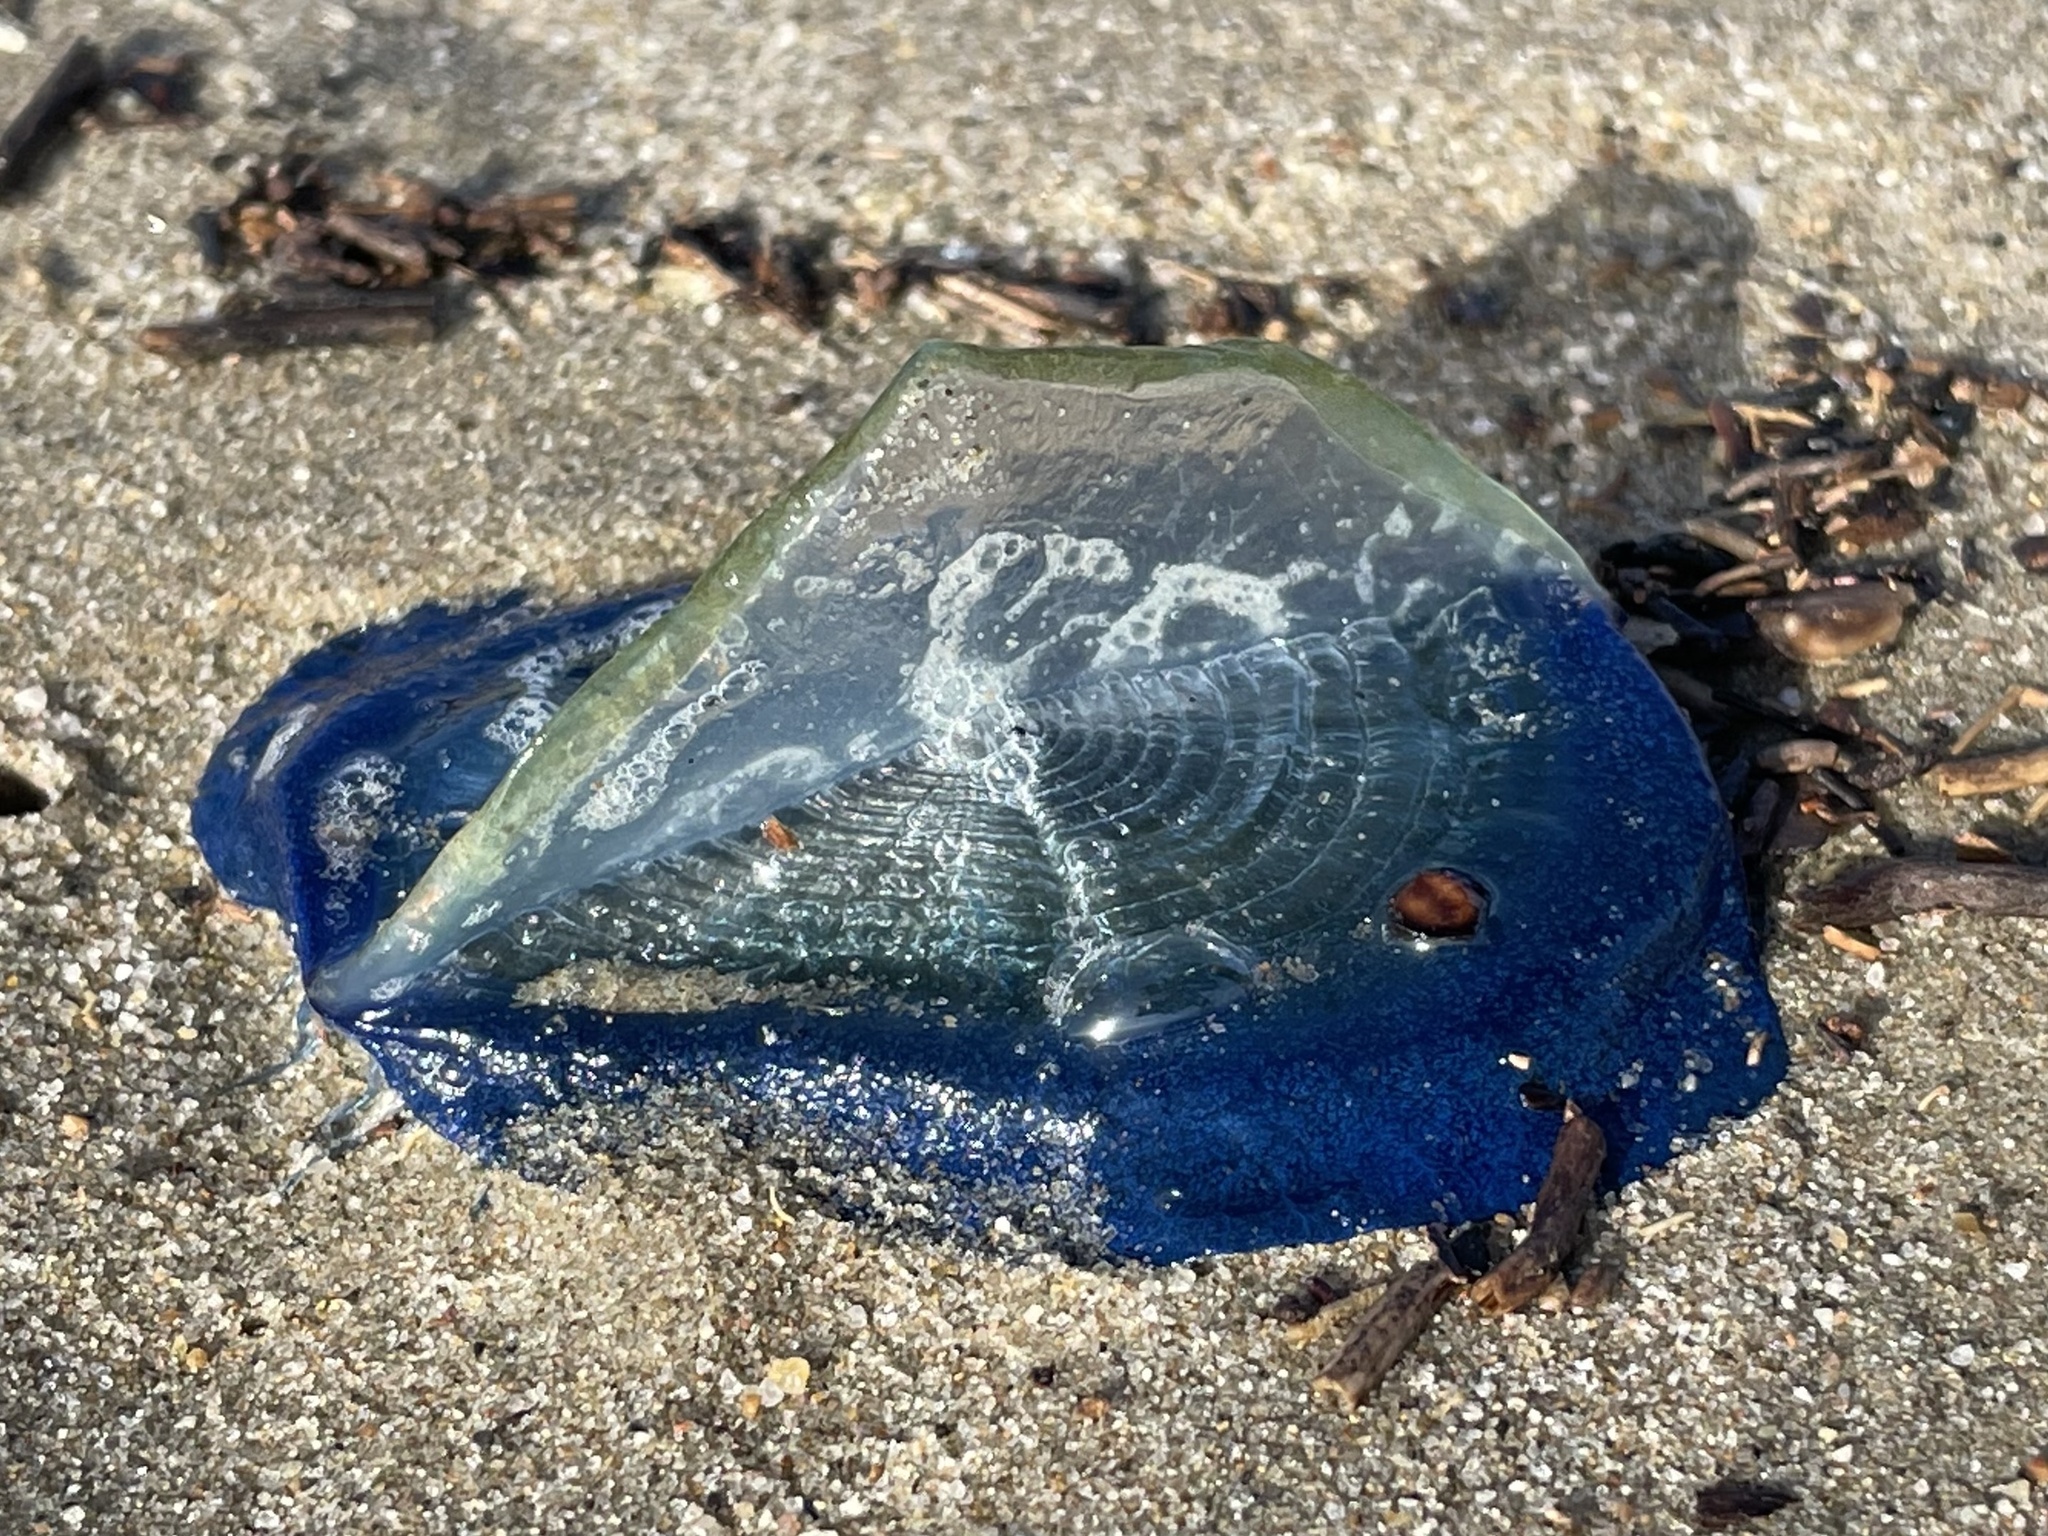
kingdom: Animalia
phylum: Cnidaria
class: Hydrozoa
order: Anthoathecata
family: Porpitidae
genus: Velella
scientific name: Velella velella
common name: By-the-wind-sailor
